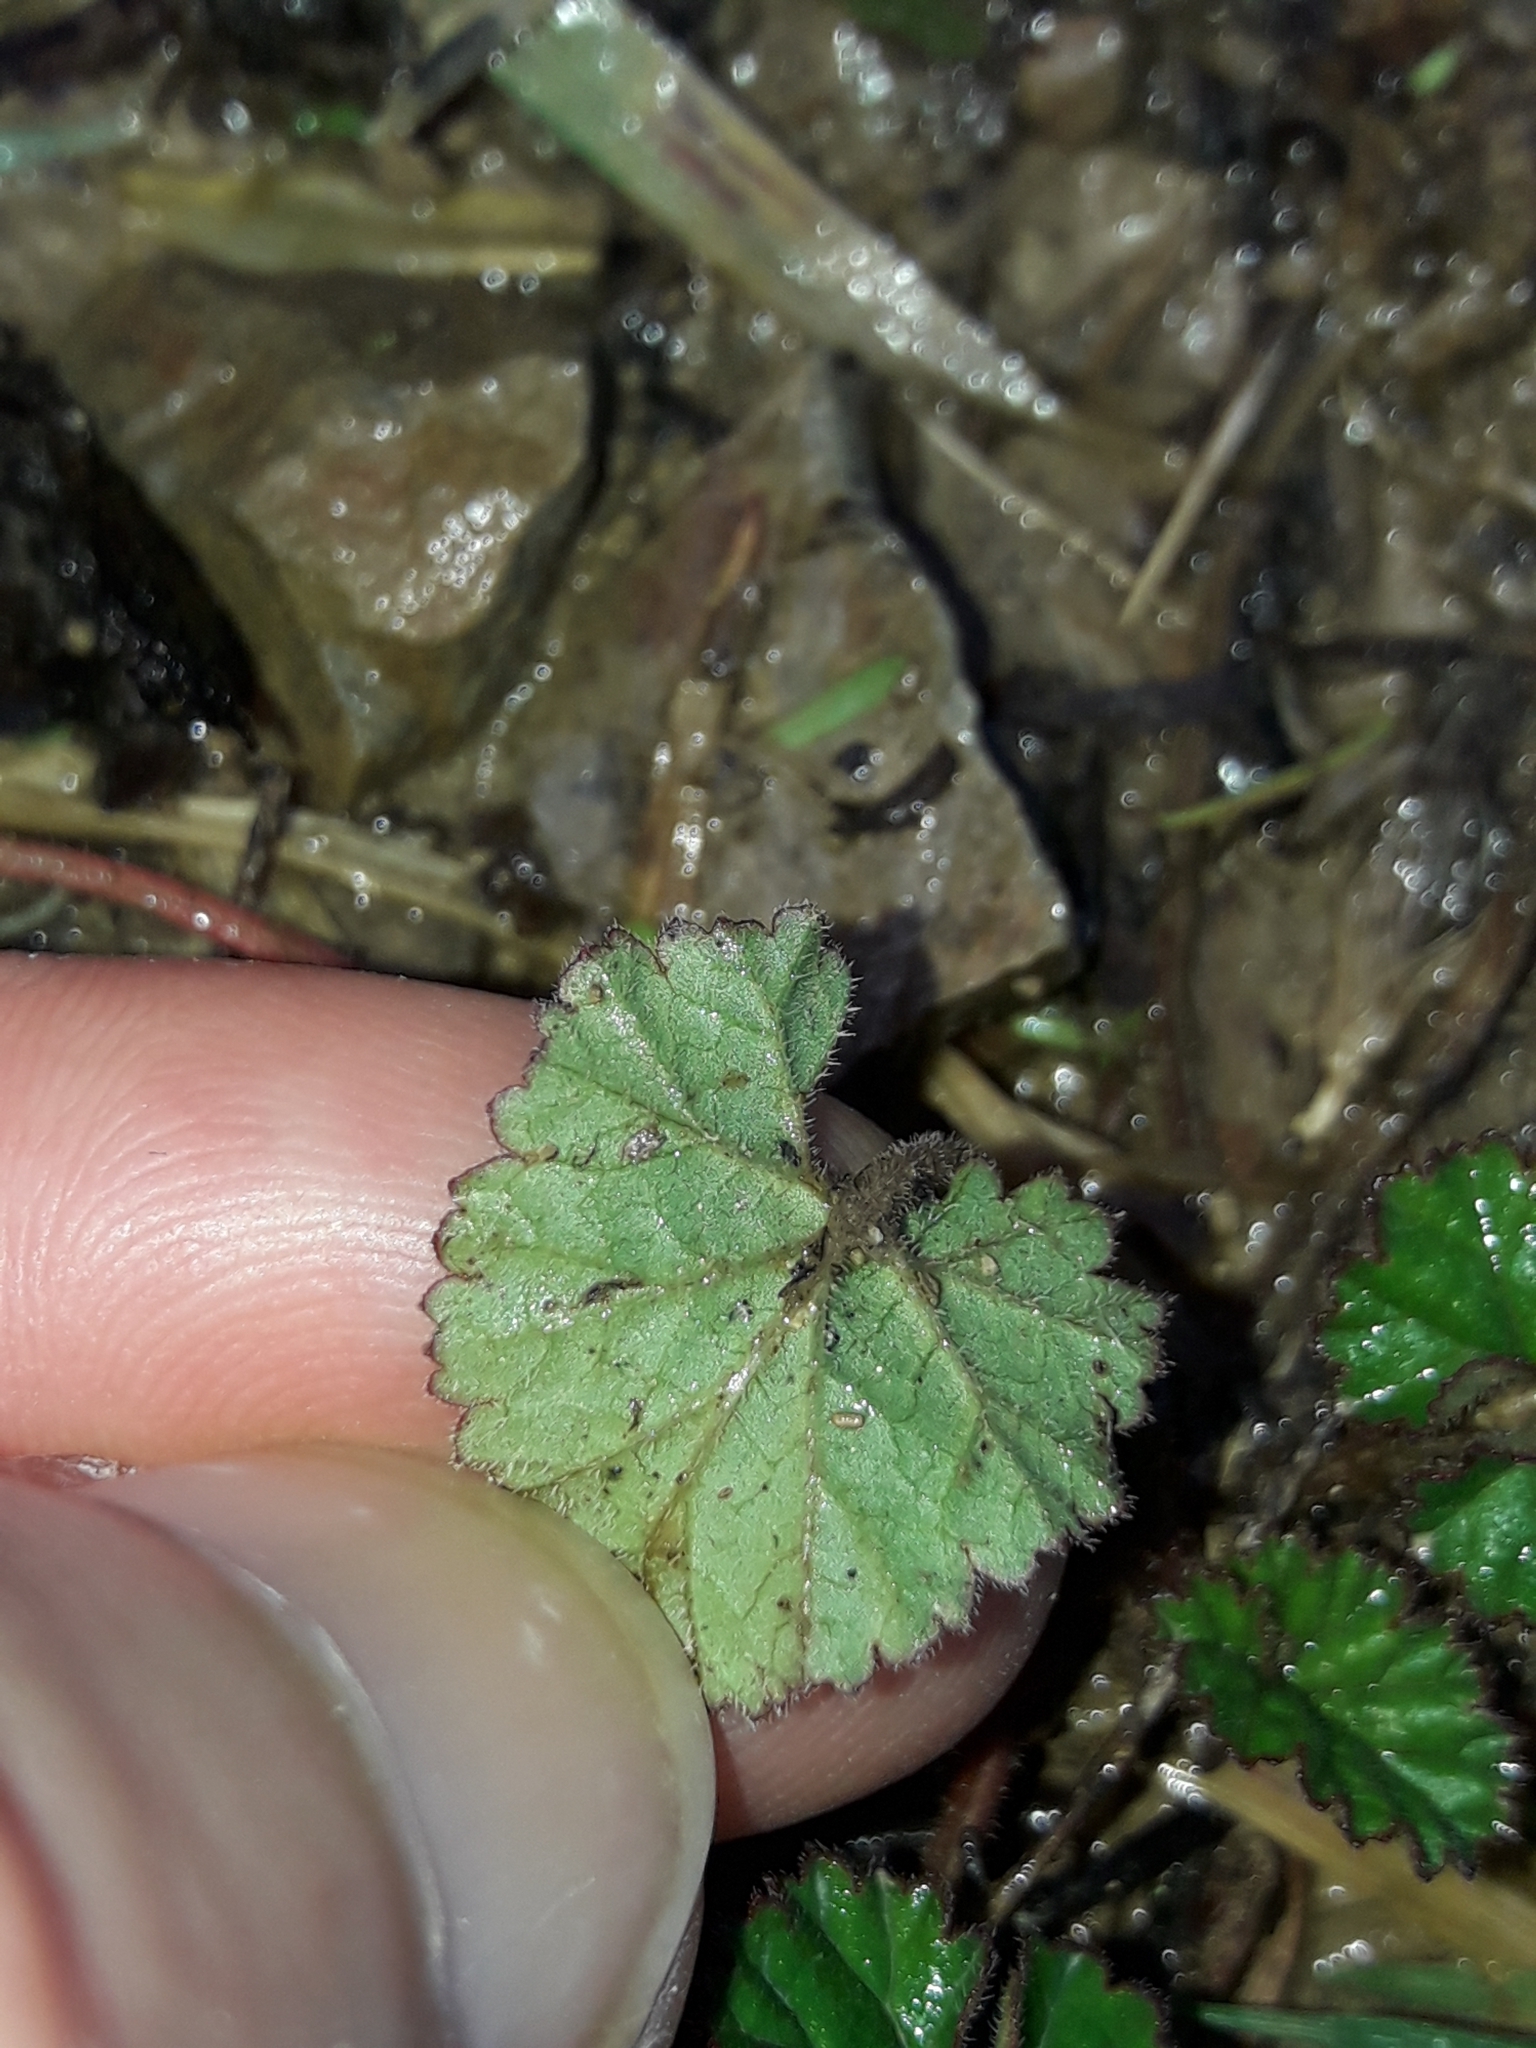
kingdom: Plantae
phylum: Tracheophyta
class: Magnoliopsida
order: Geraniales
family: Geraniaceae
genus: Pelargonium
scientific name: Pelargonium inodorum
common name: Kopata geranium
